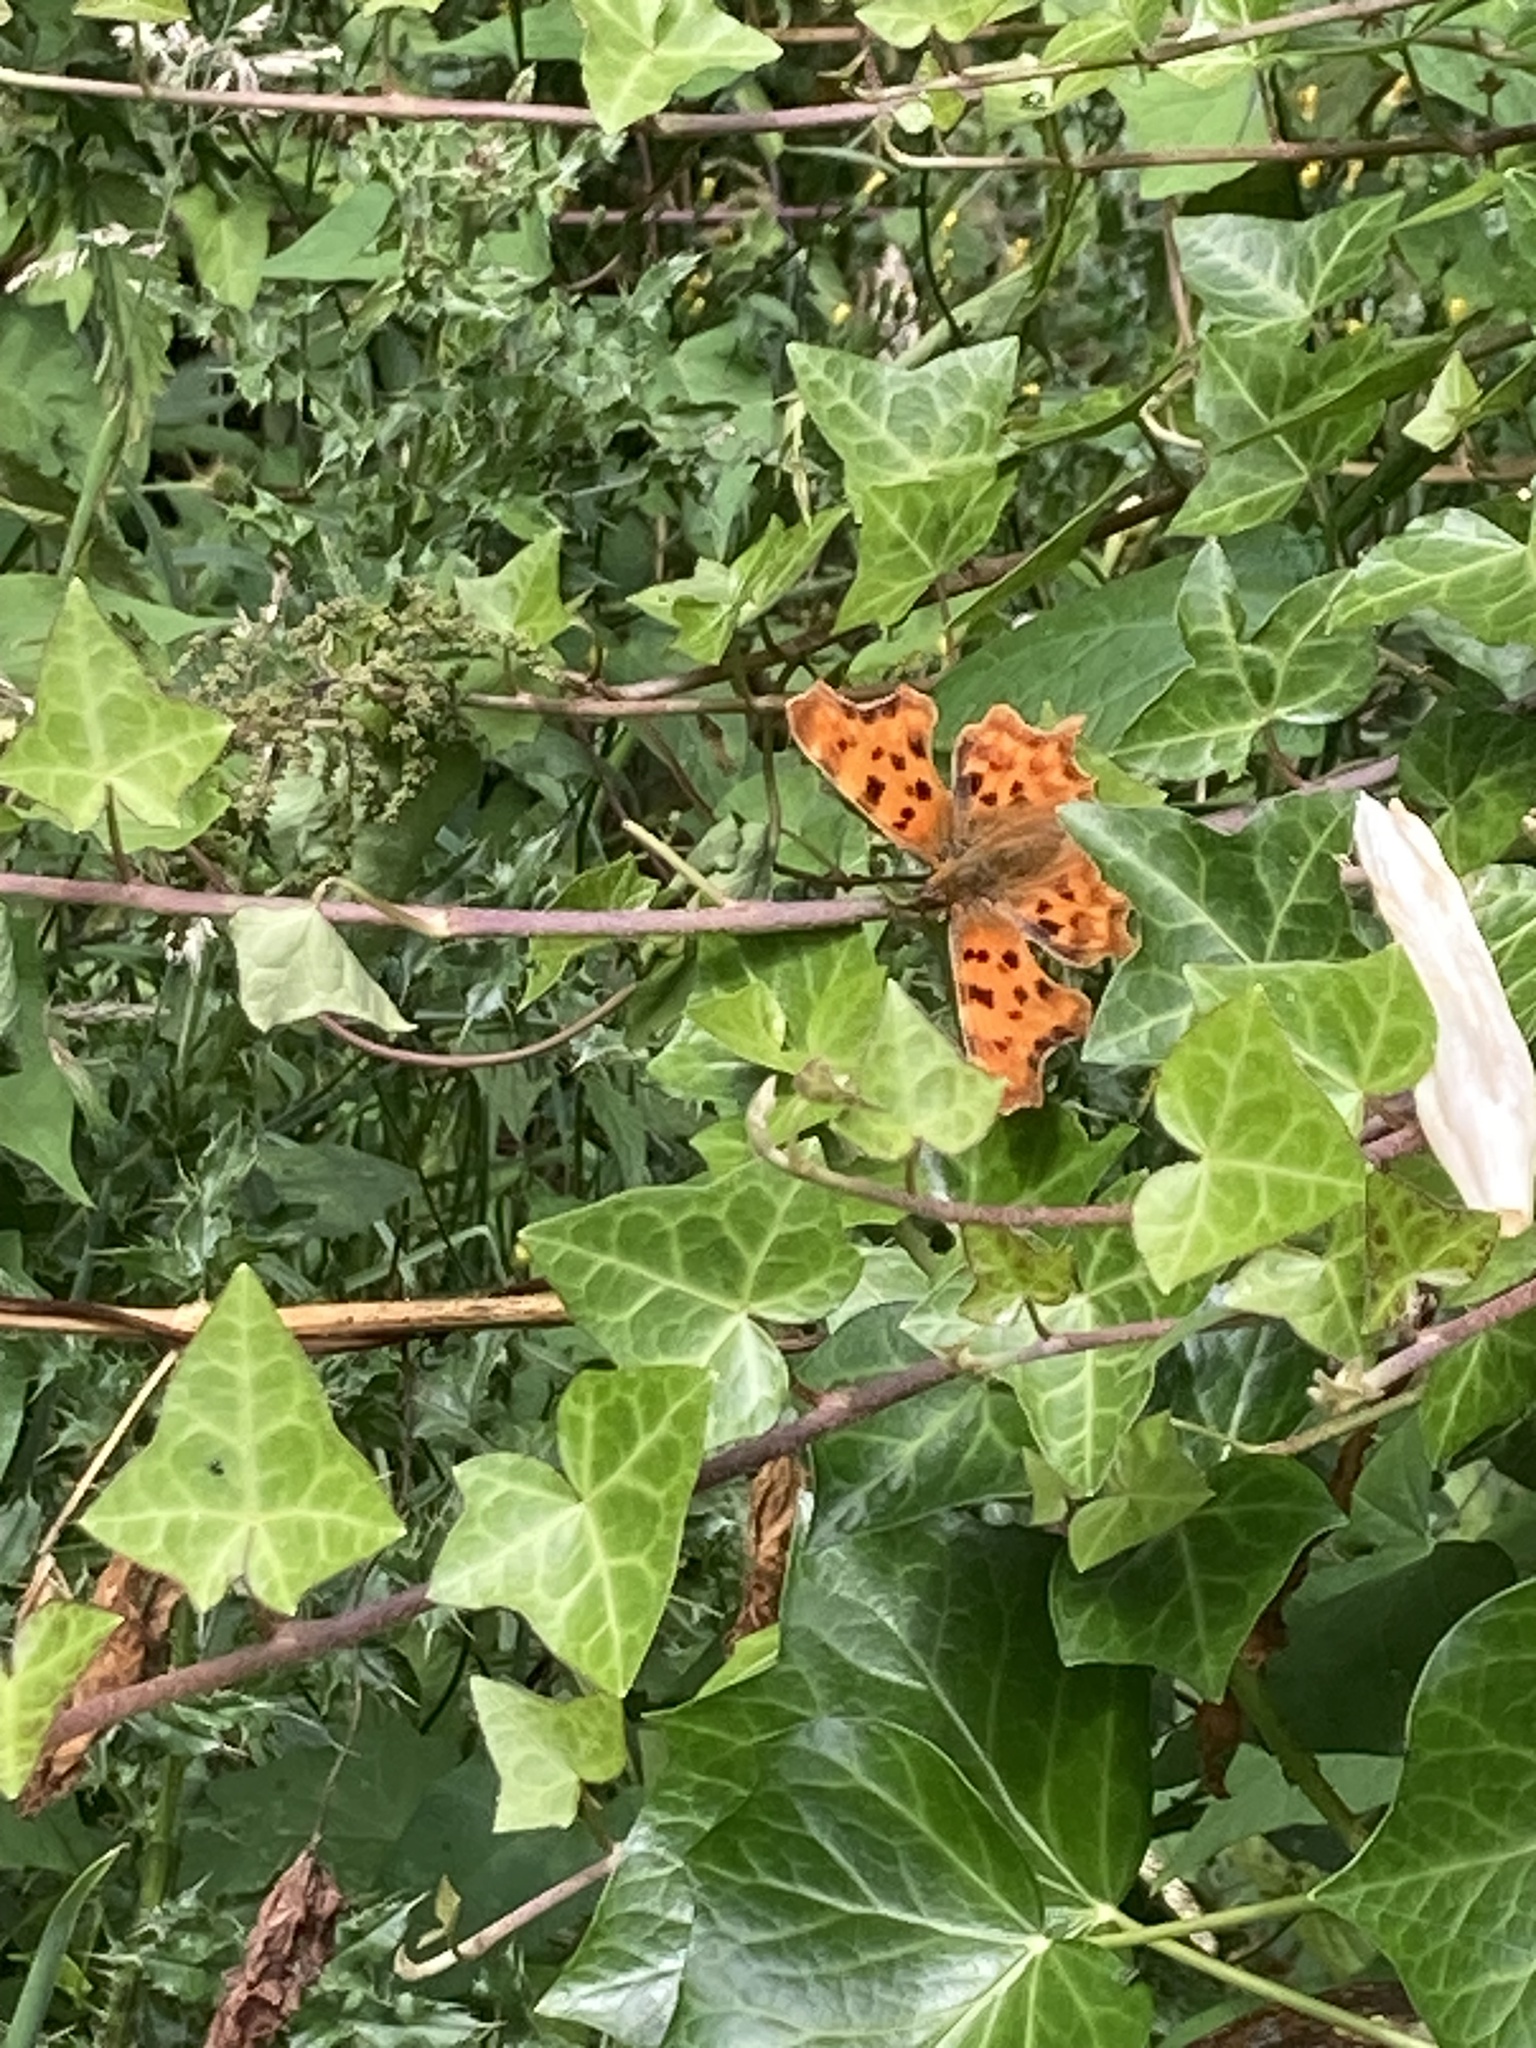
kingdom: Animalia
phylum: Arthropoda
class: Insecta
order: Lepidoptera
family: Nymphalidae
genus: Polygonia
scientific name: Polygonia c-album
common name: Comma
